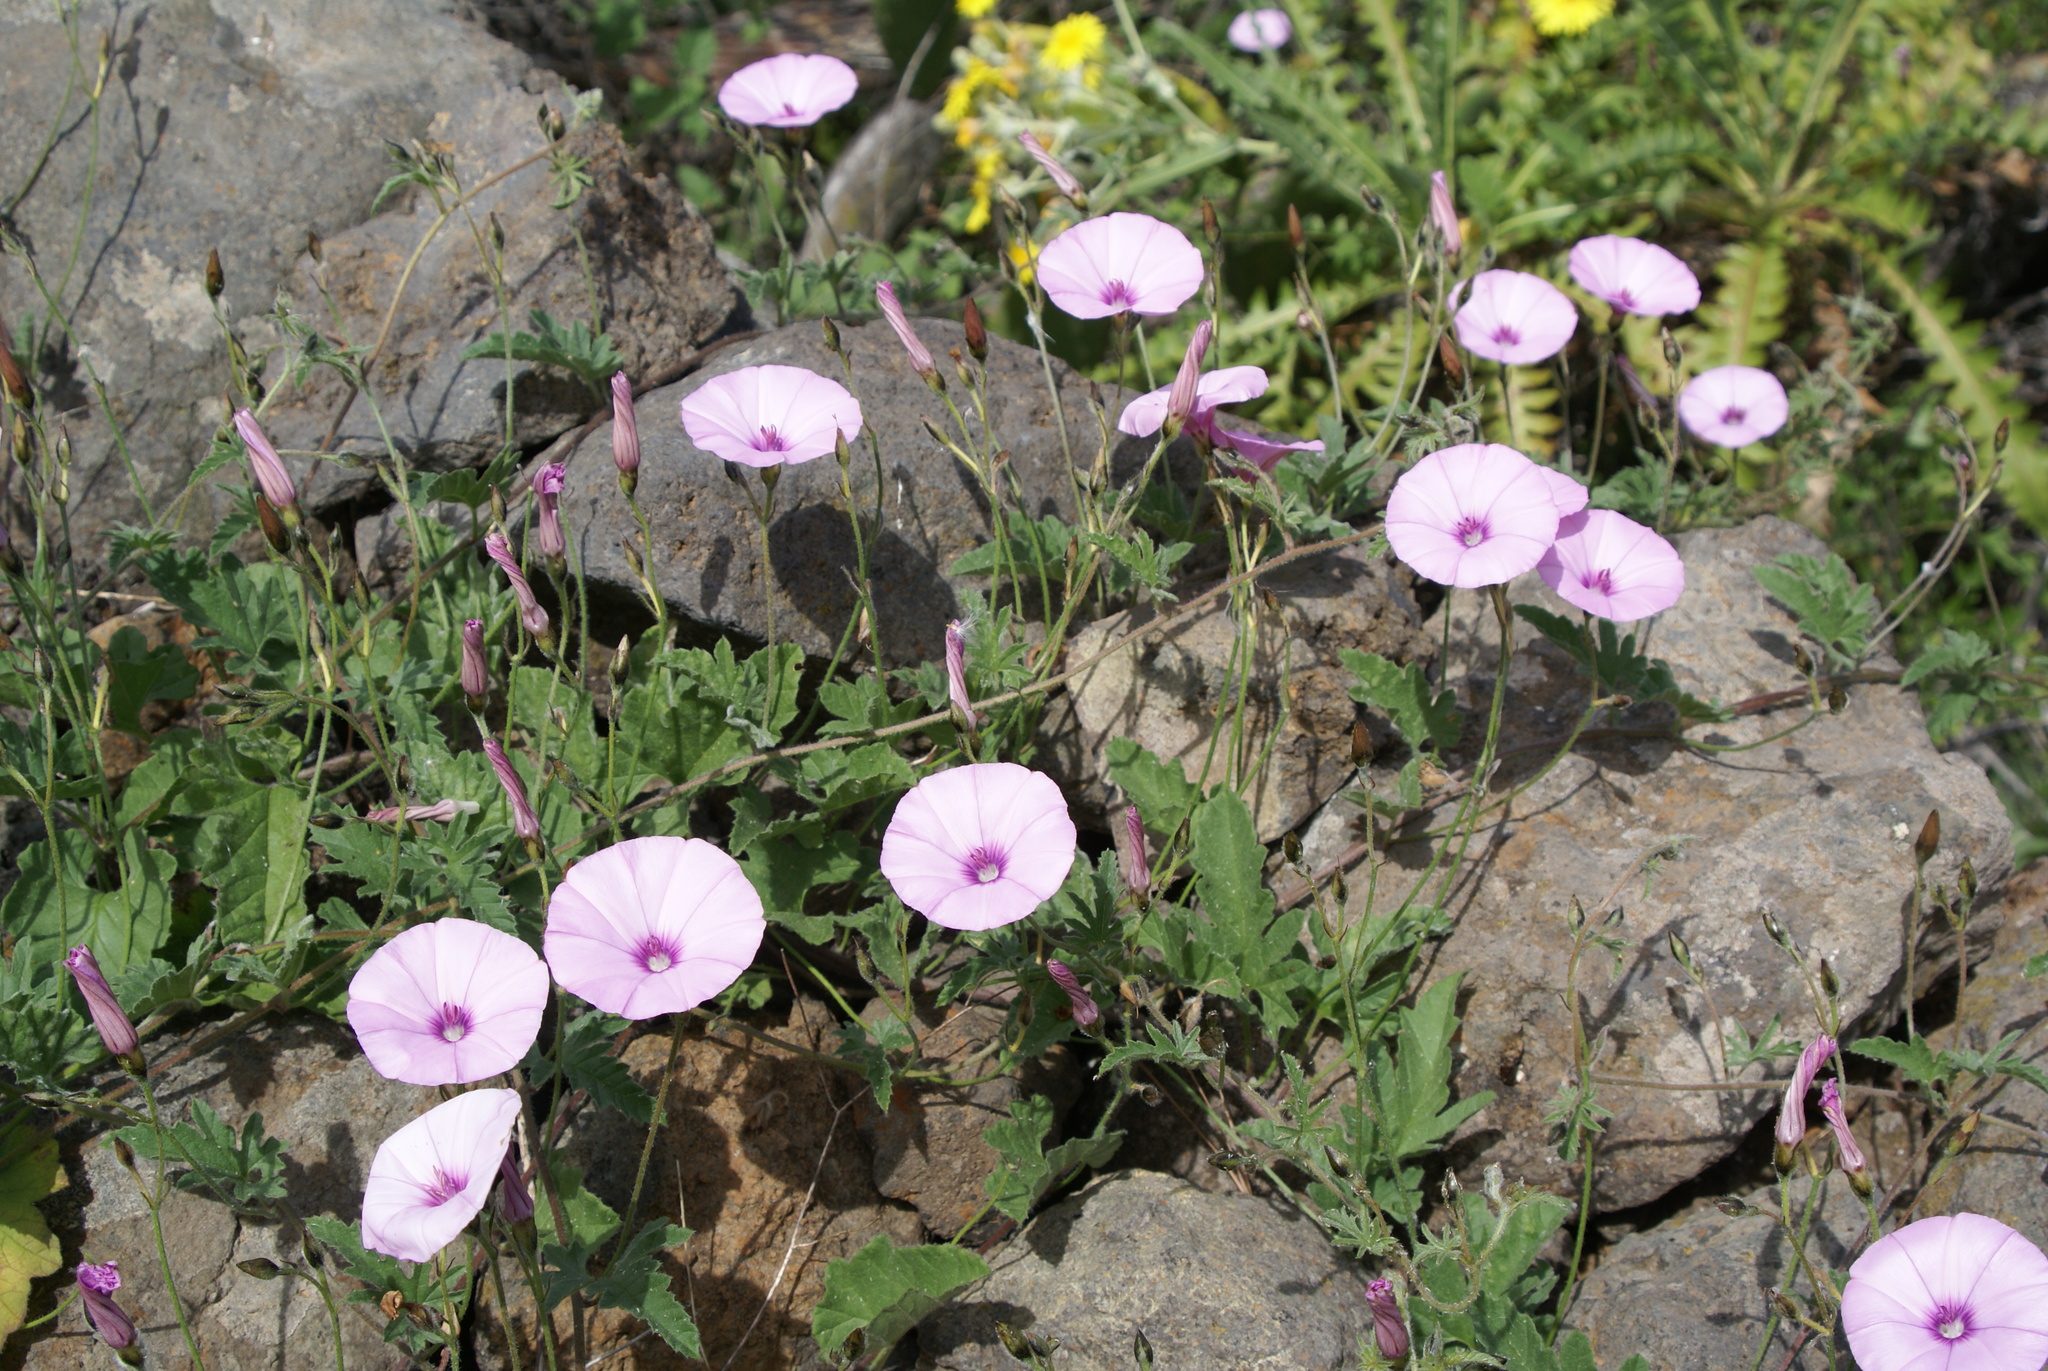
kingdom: Plantae
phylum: Tracheophyta
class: Magnoliopsida
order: Solanales
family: Convolvulaceae
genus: Convolvulus
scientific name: Convolvulus althaeoides
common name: Mallow bindweed
